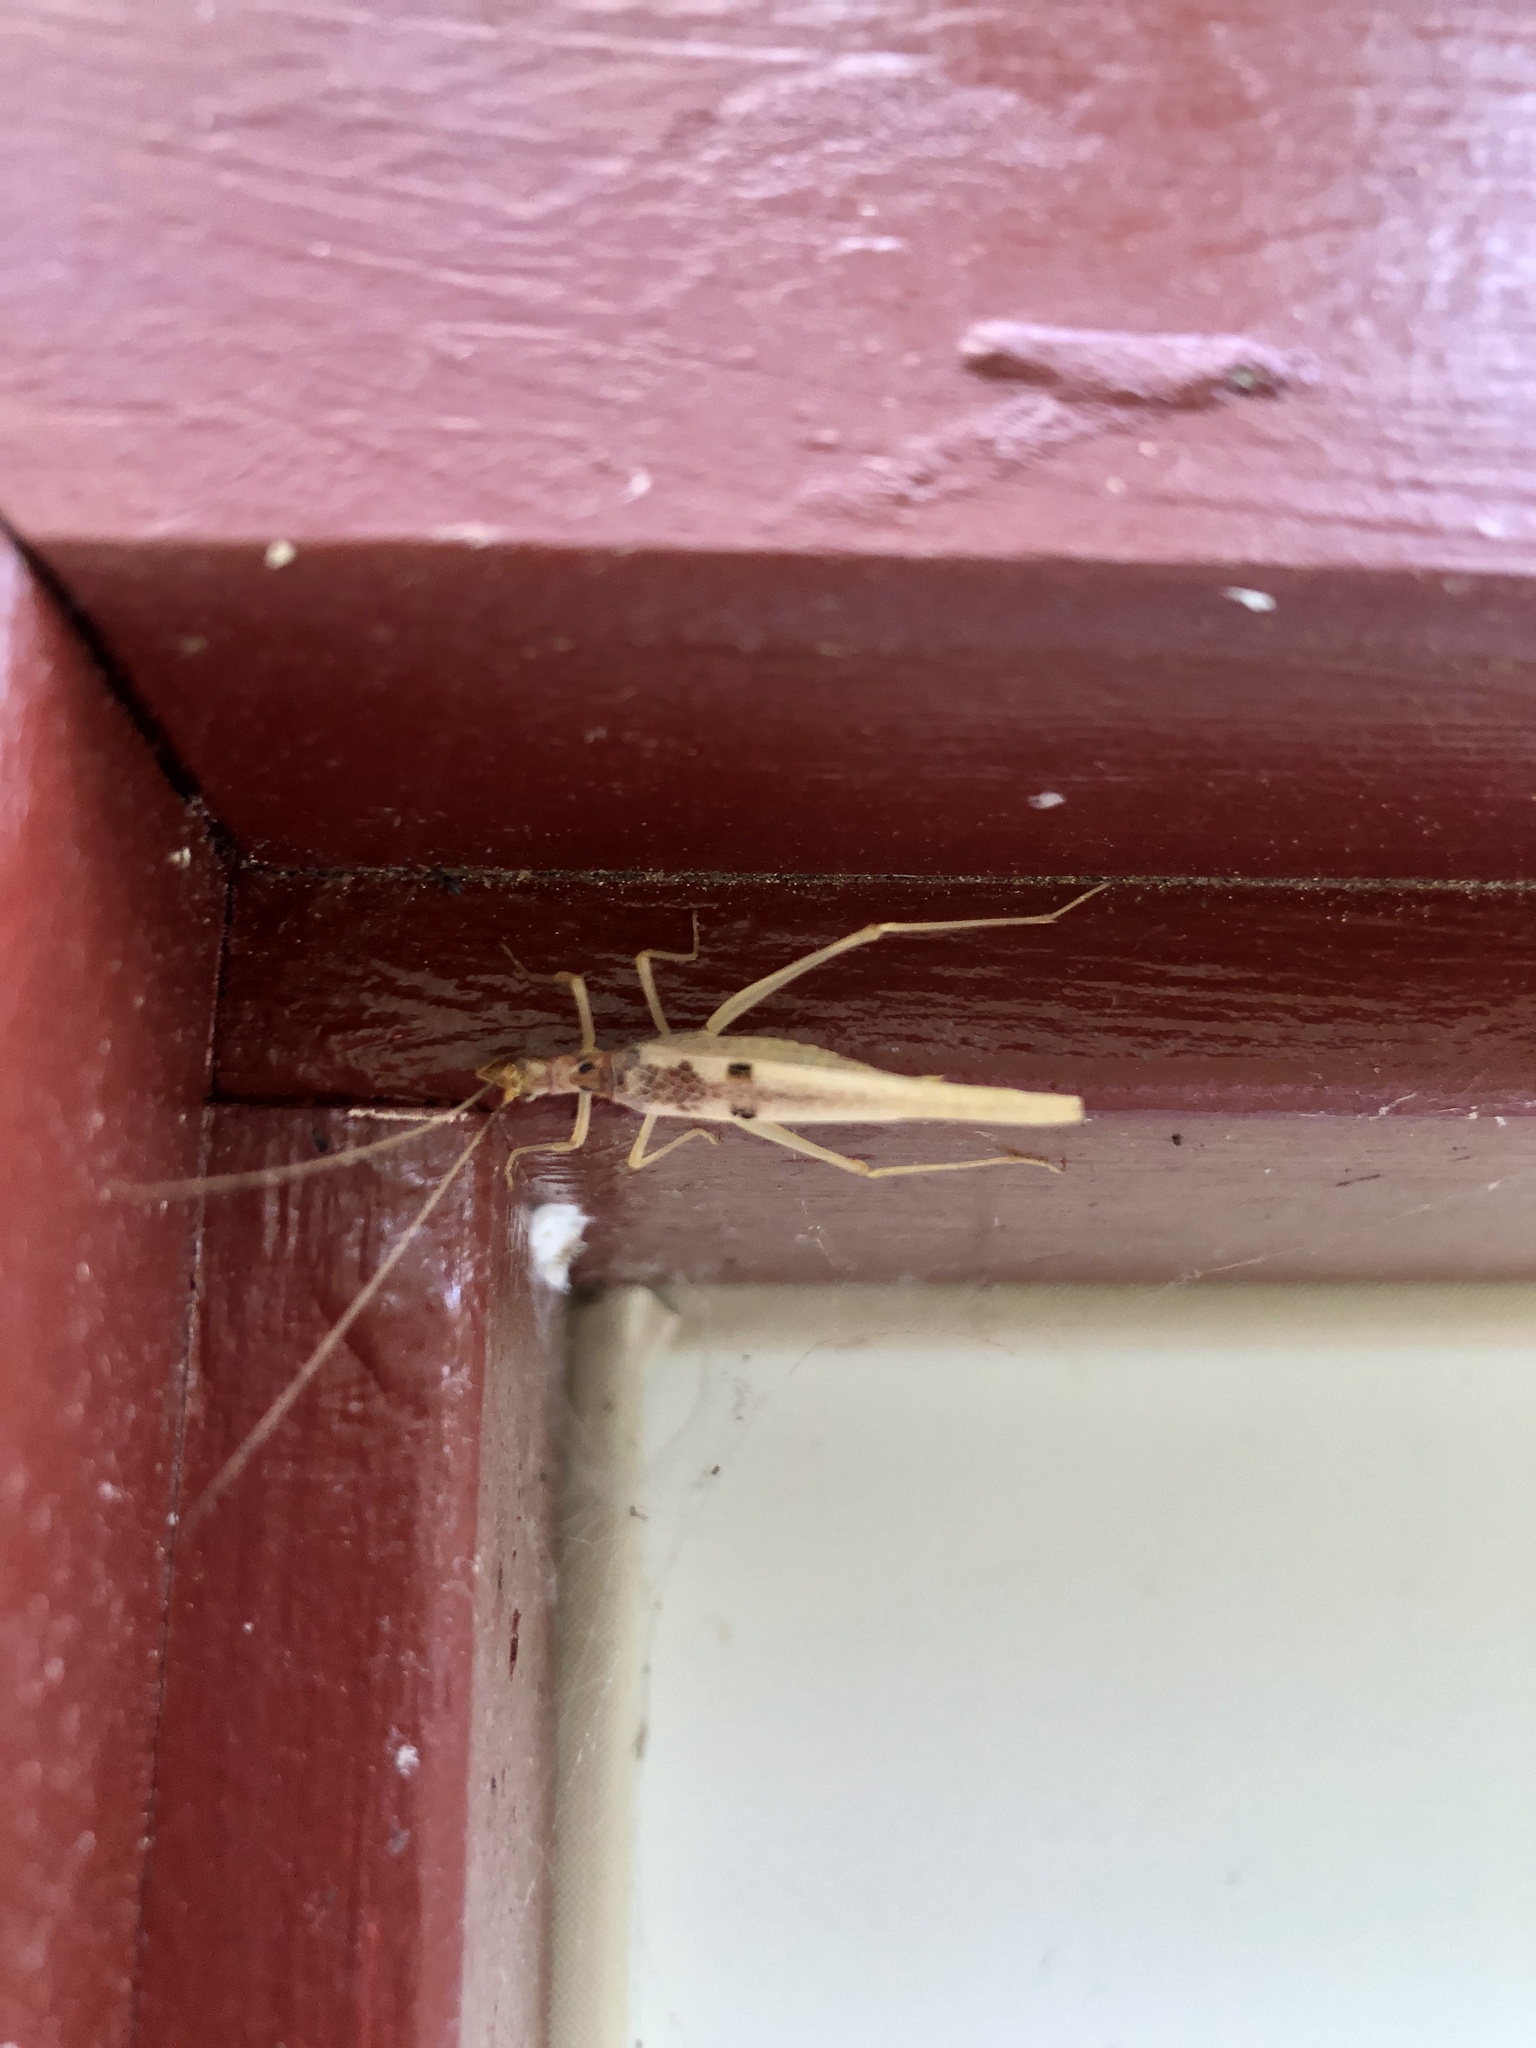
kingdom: Animalia
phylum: Arthropoda
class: Insecta
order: Orthoptera
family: Gryllidae
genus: Neoxabea
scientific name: Neoxabea bipunctata
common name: Two-spotted tree cricket
